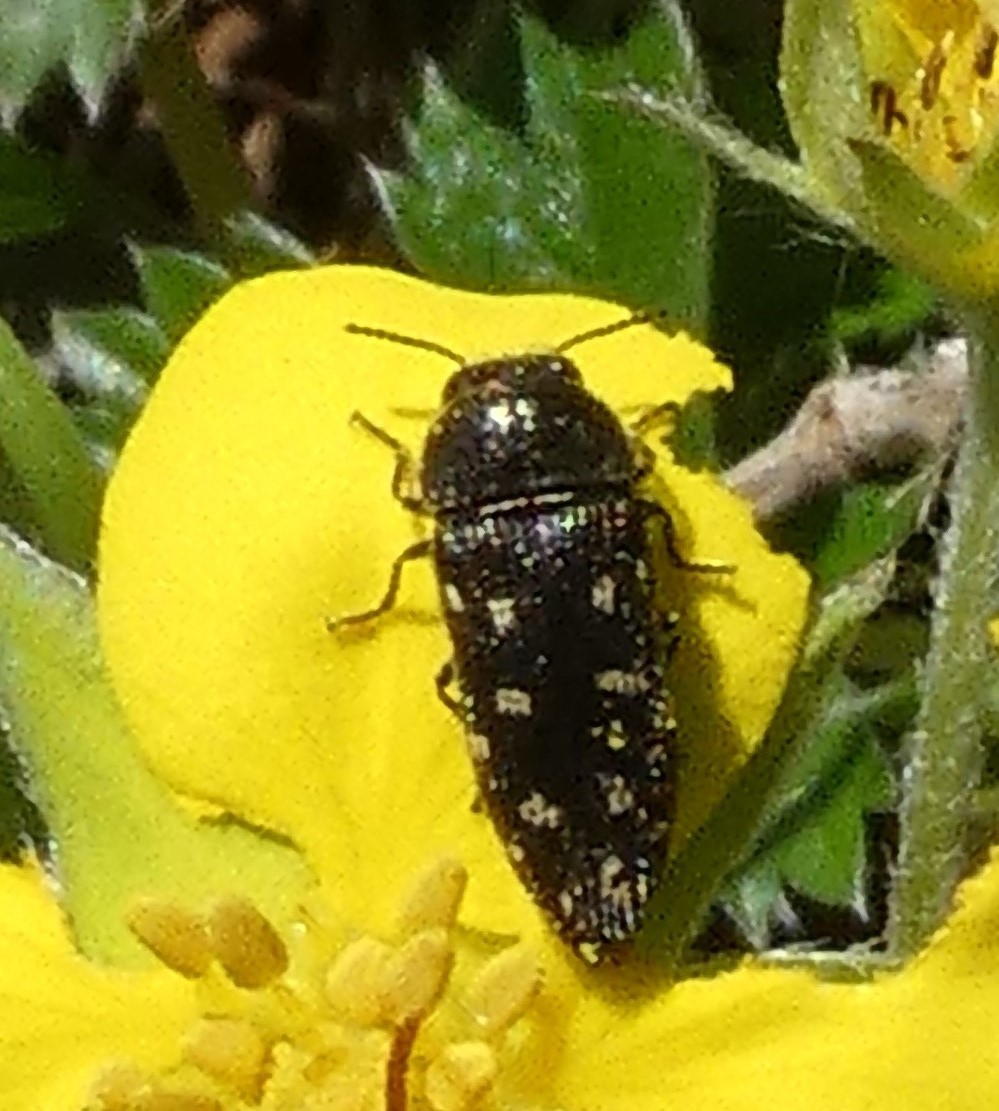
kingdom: Animalia
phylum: Arthropoda
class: Insecta
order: Coleoptera
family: Buprestidae
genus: Acmaeodera
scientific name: Acmaeodera tubulus
